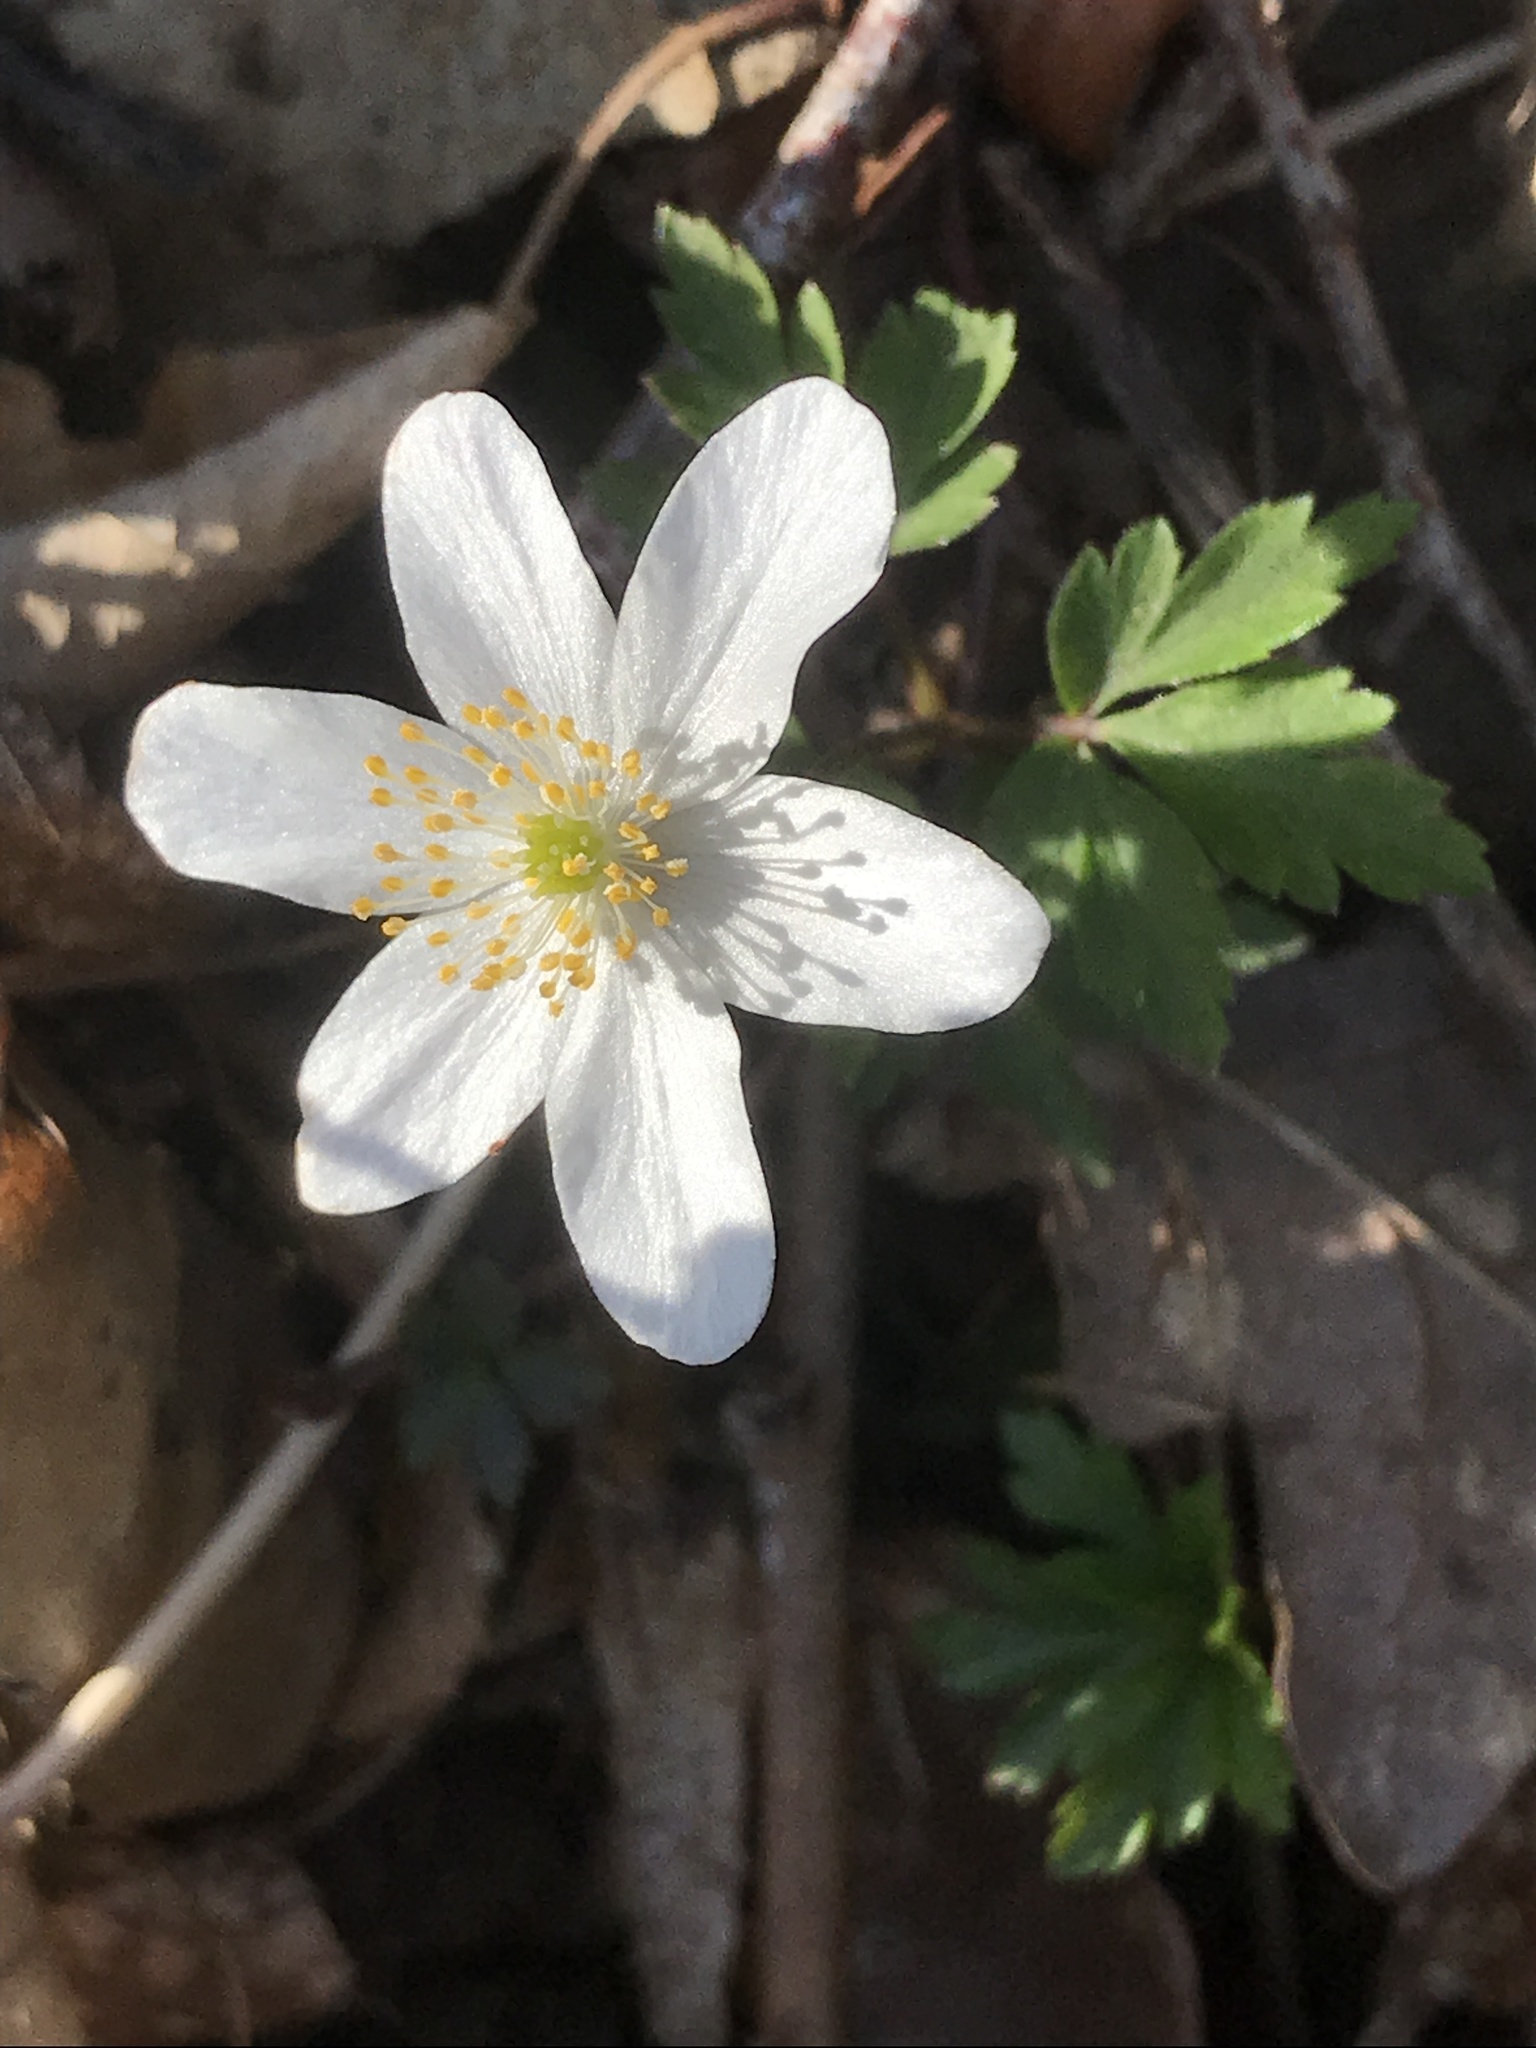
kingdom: Plantae
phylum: Tracheophyta
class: Magnoliopsida
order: Ranunculales
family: Ranunculaceae
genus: Anemone
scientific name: Anemone nemorosa
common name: Wood anemone
